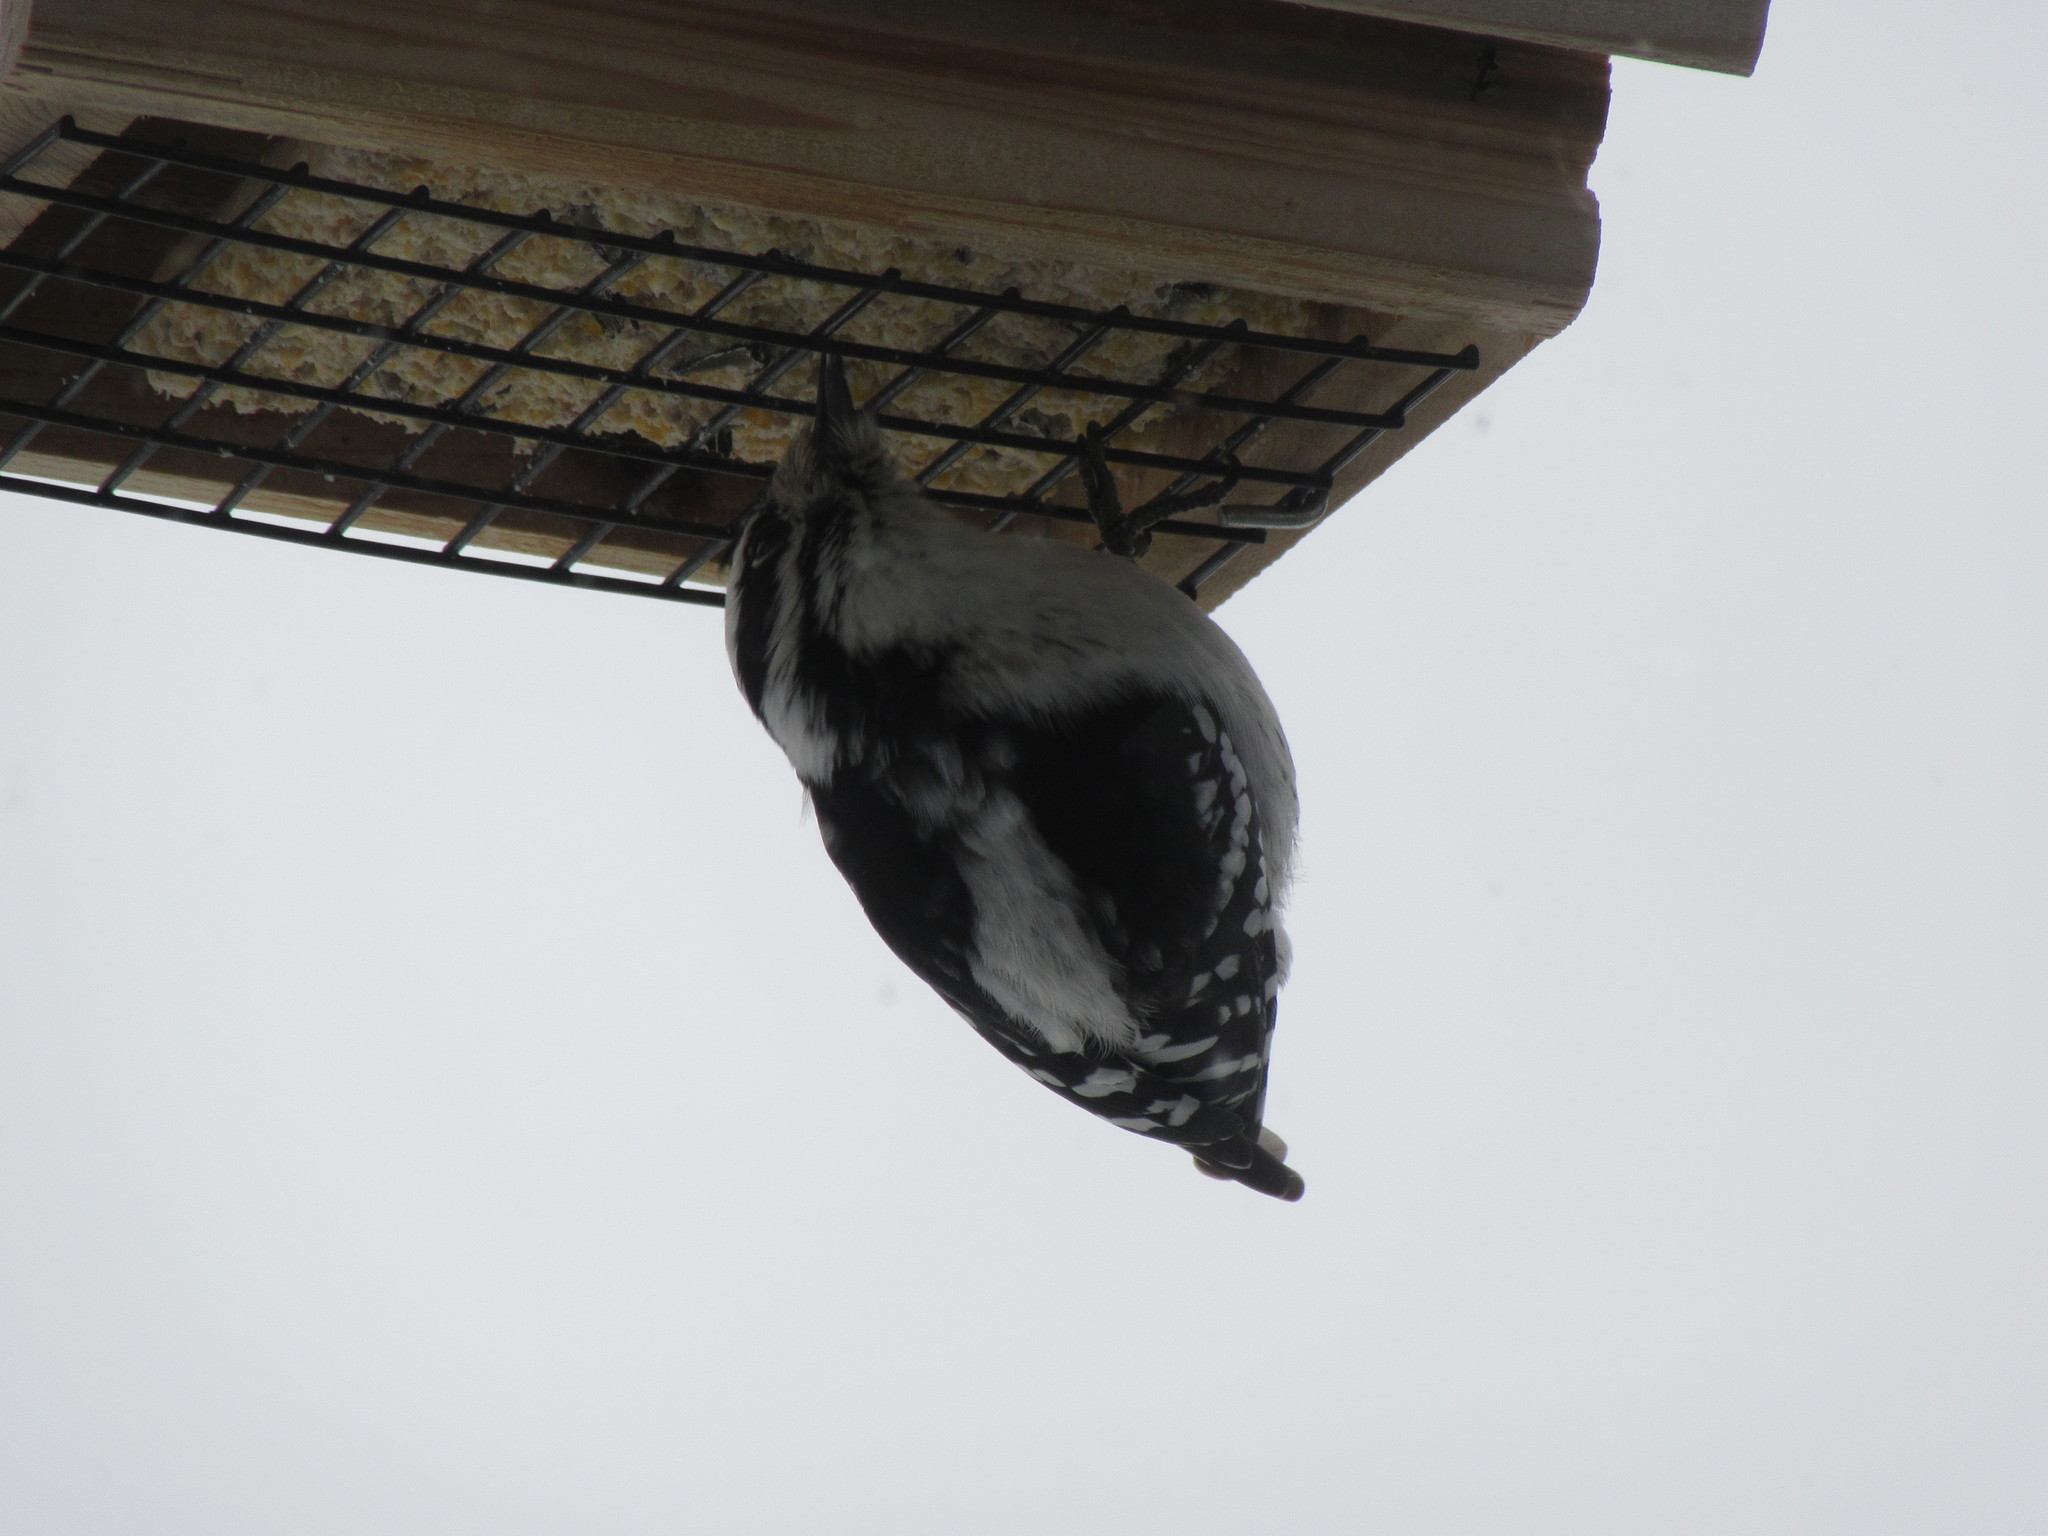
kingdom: Animalia
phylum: Chordata
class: Aves
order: Piciformes
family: Picidae
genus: Dryobates
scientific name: Dryobates pubescens
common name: Downy woodpecker
